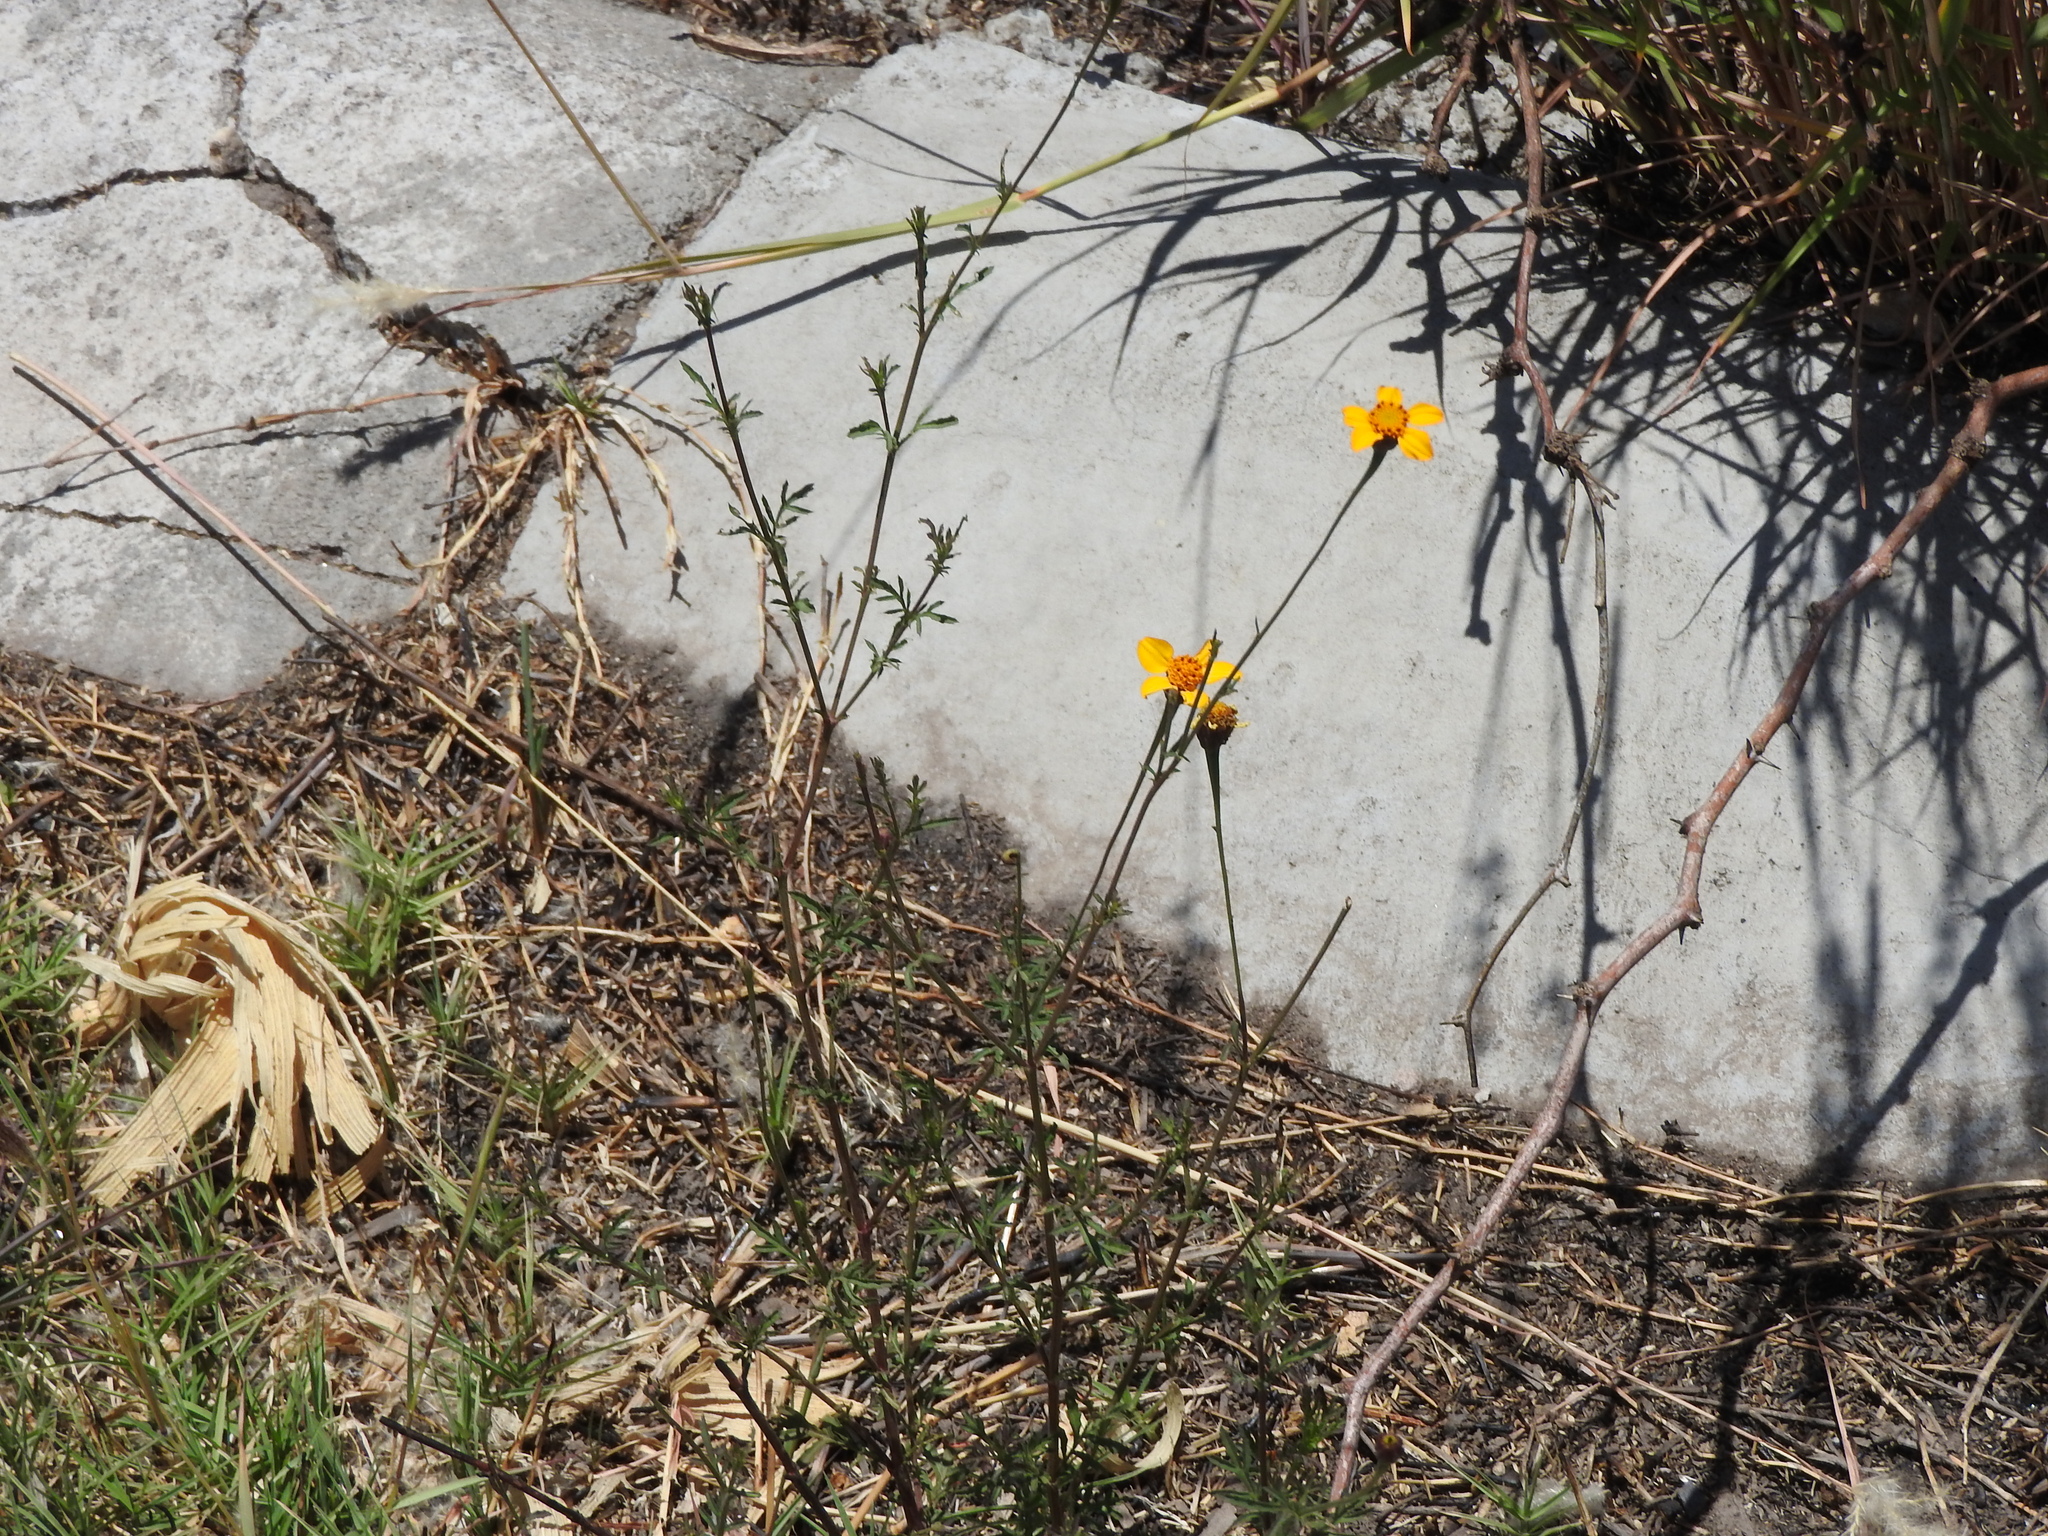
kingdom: Plantae
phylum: Tracheophyta
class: Magnoliopsida
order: Asterales
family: Asteraceae
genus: Dyssodia
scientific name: Dyssodia tagetiflora
